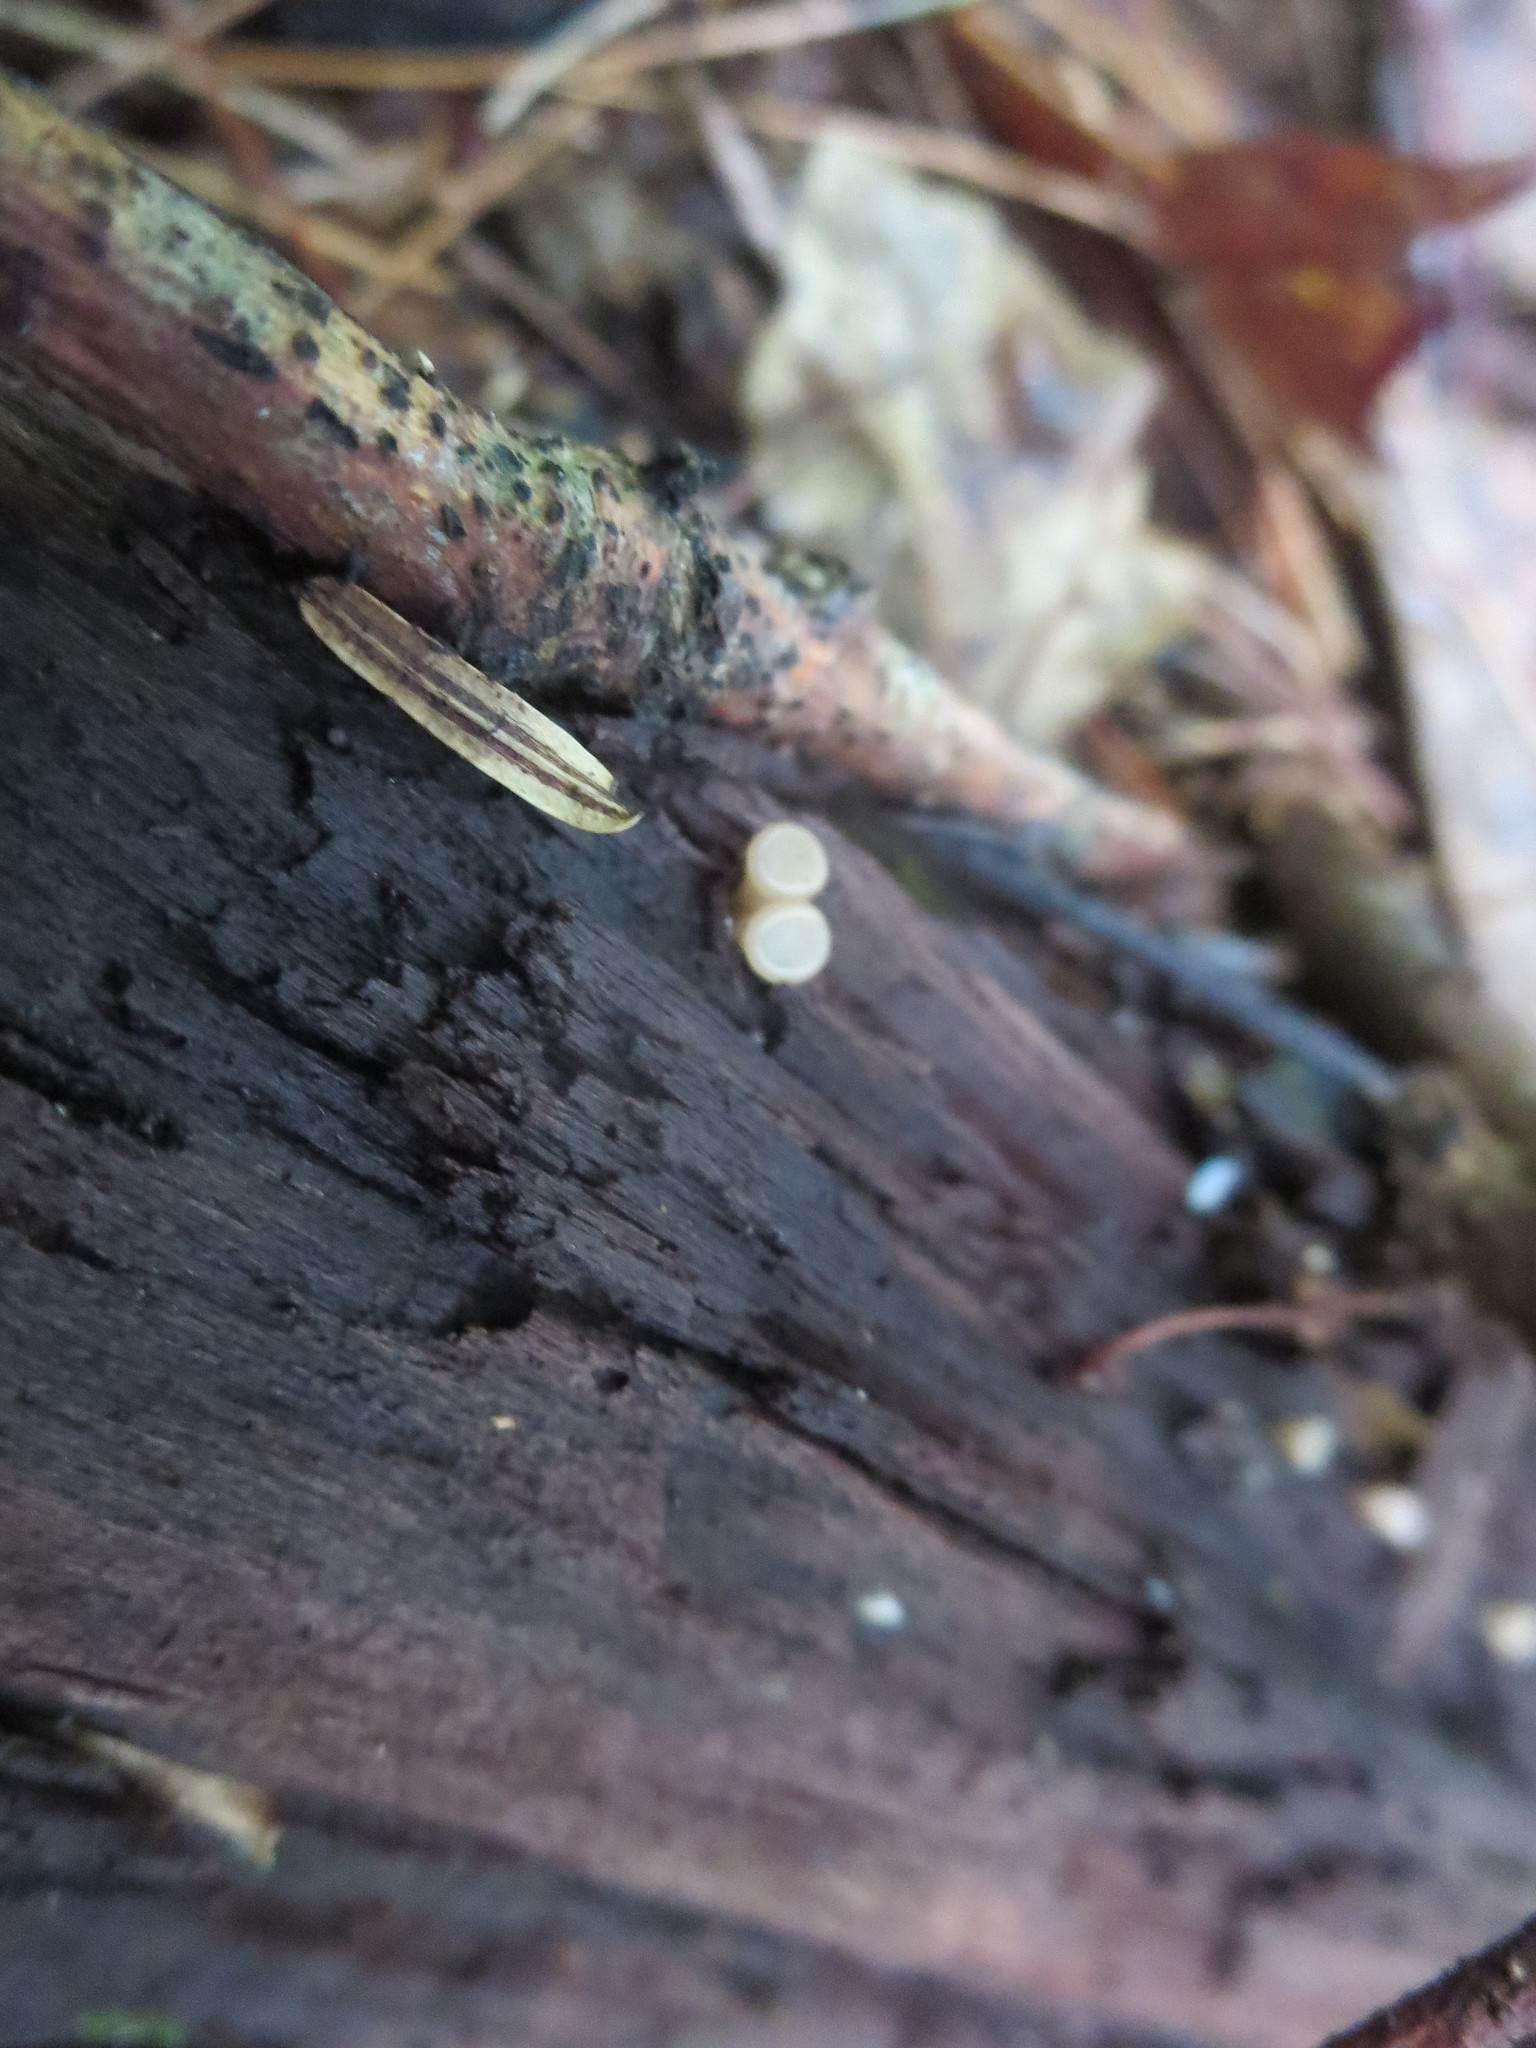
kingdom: Fungi
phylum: Ascomycota
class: Leotiomycetes
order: Helotiales
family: Gelatinodiscaceae
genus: Neobulgaria
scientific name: Neobulgaria pura
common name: Beech jelly-disc
